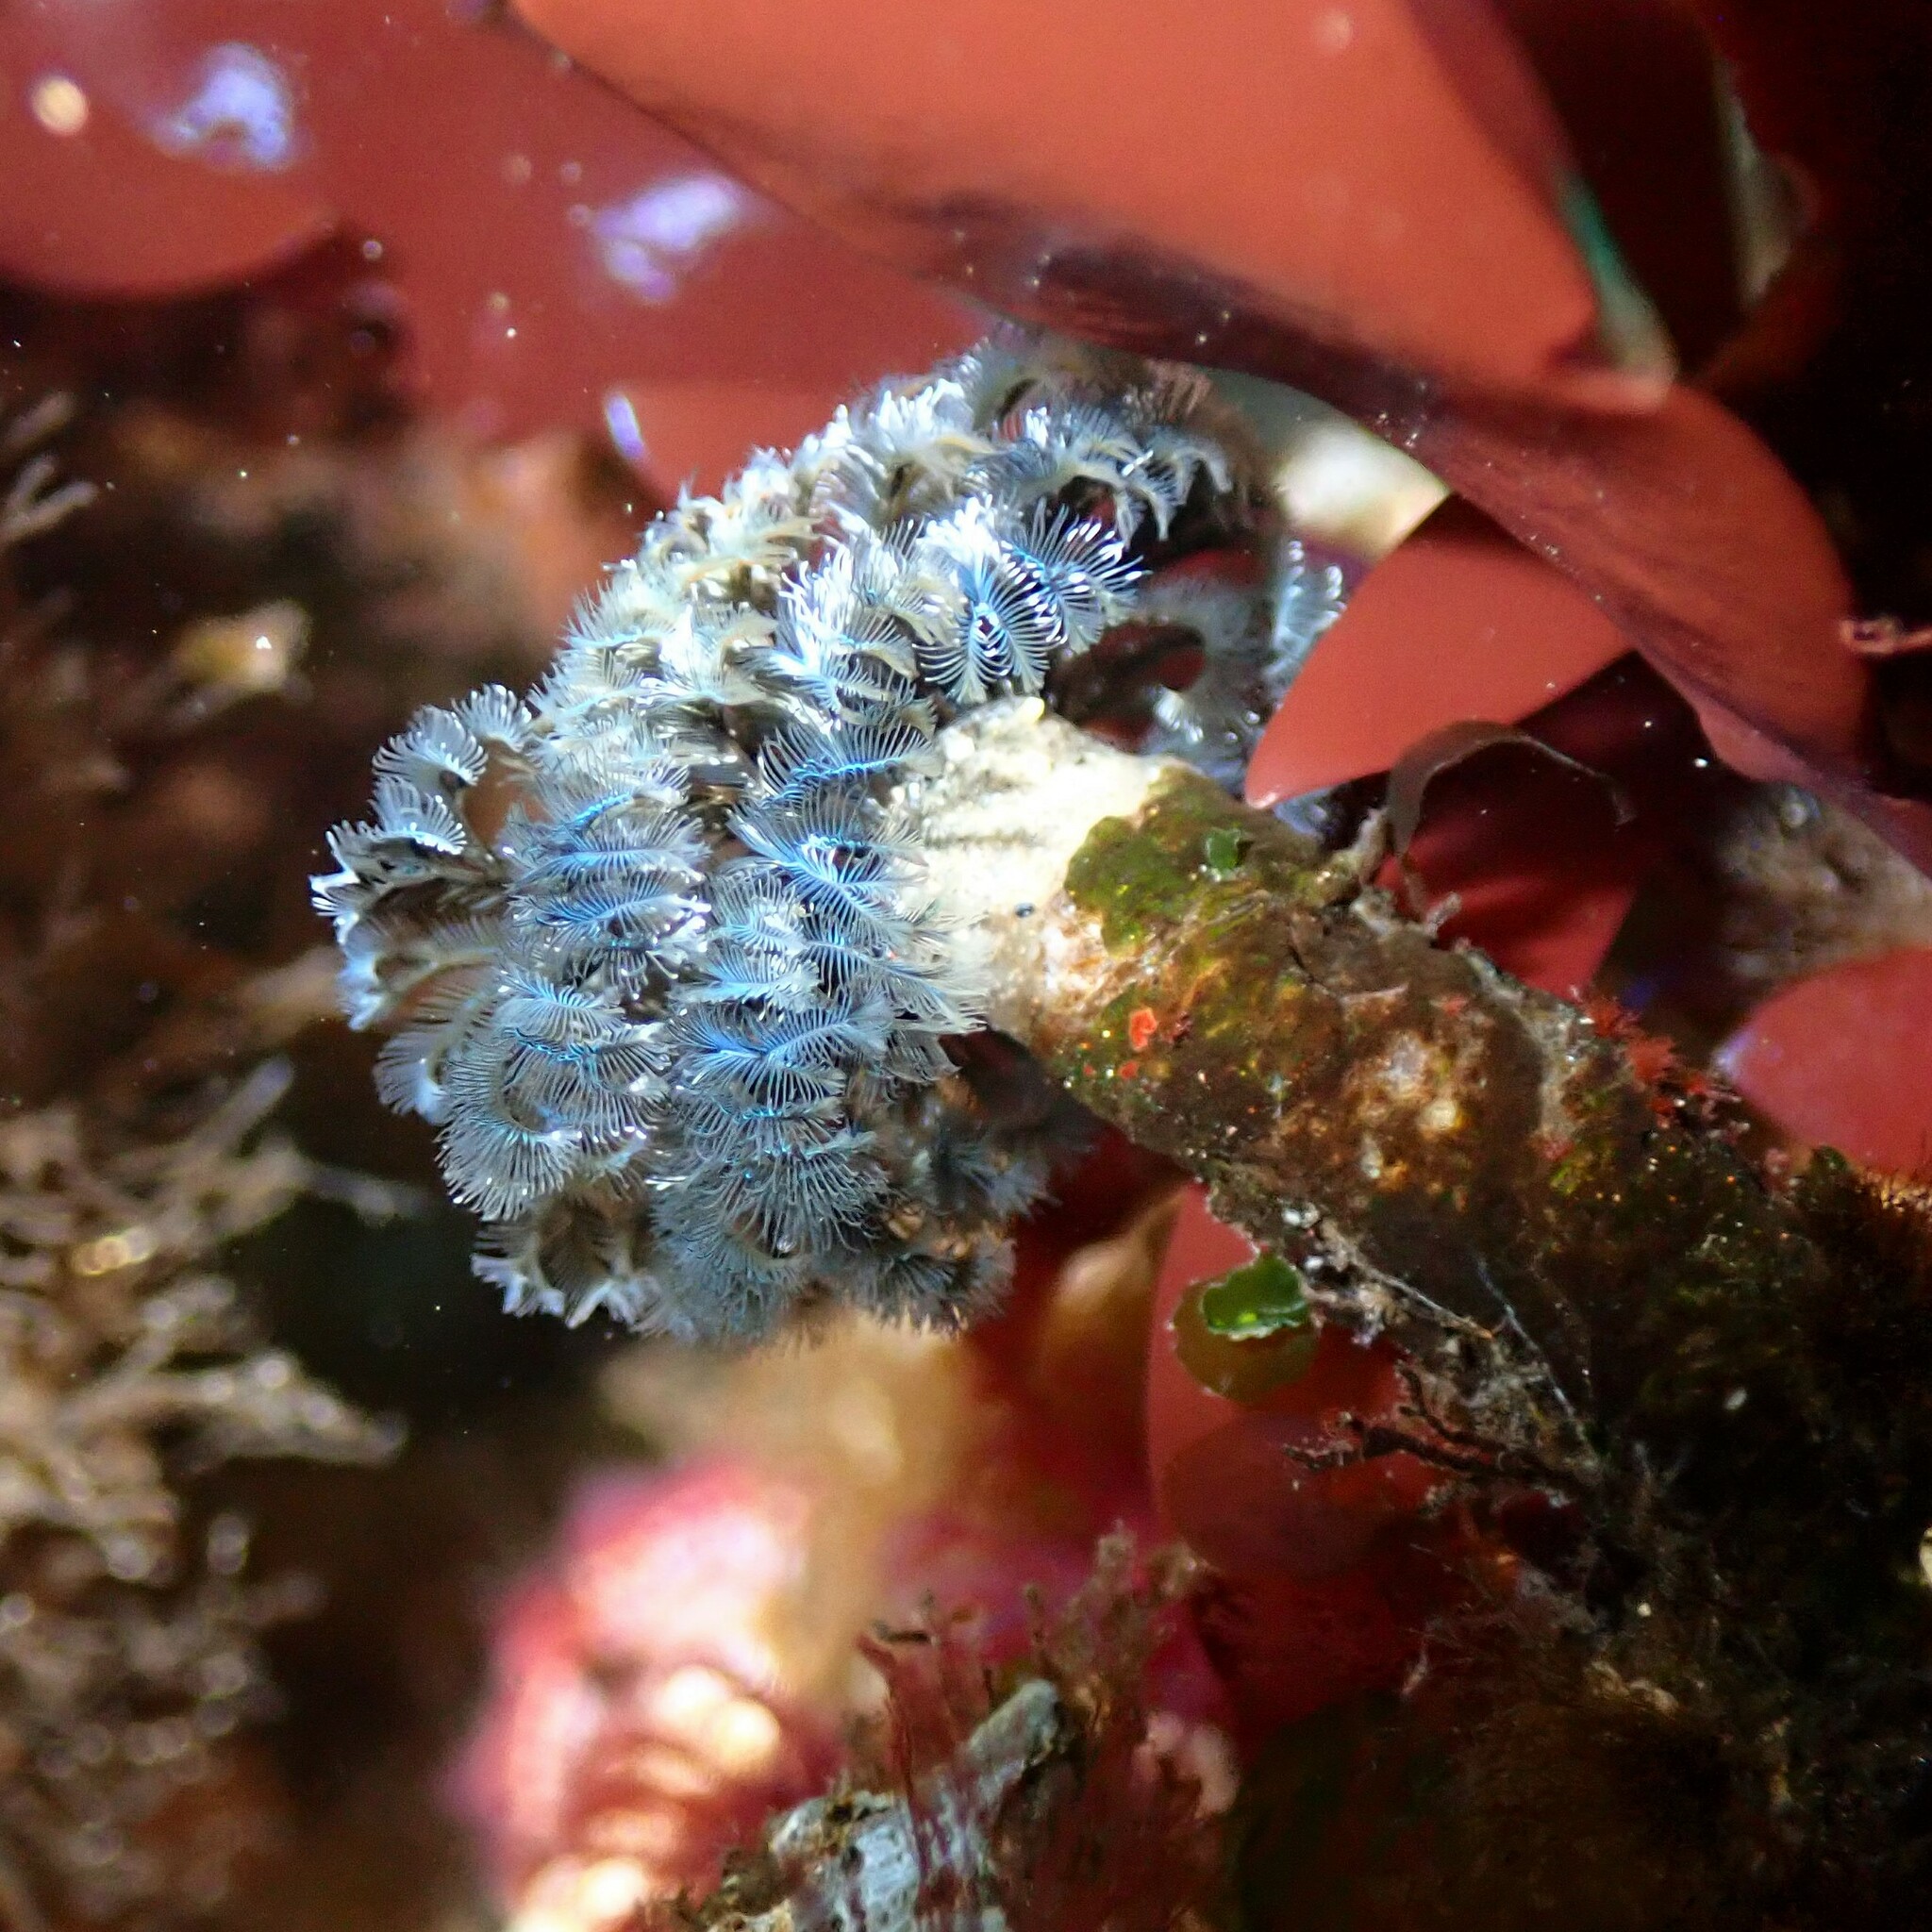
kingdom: Animalia
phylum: Annelida
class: Polychaeta
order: Sabellida
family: Sabellidae
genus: Schizobranchia
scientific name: Schizobranchia insignis
